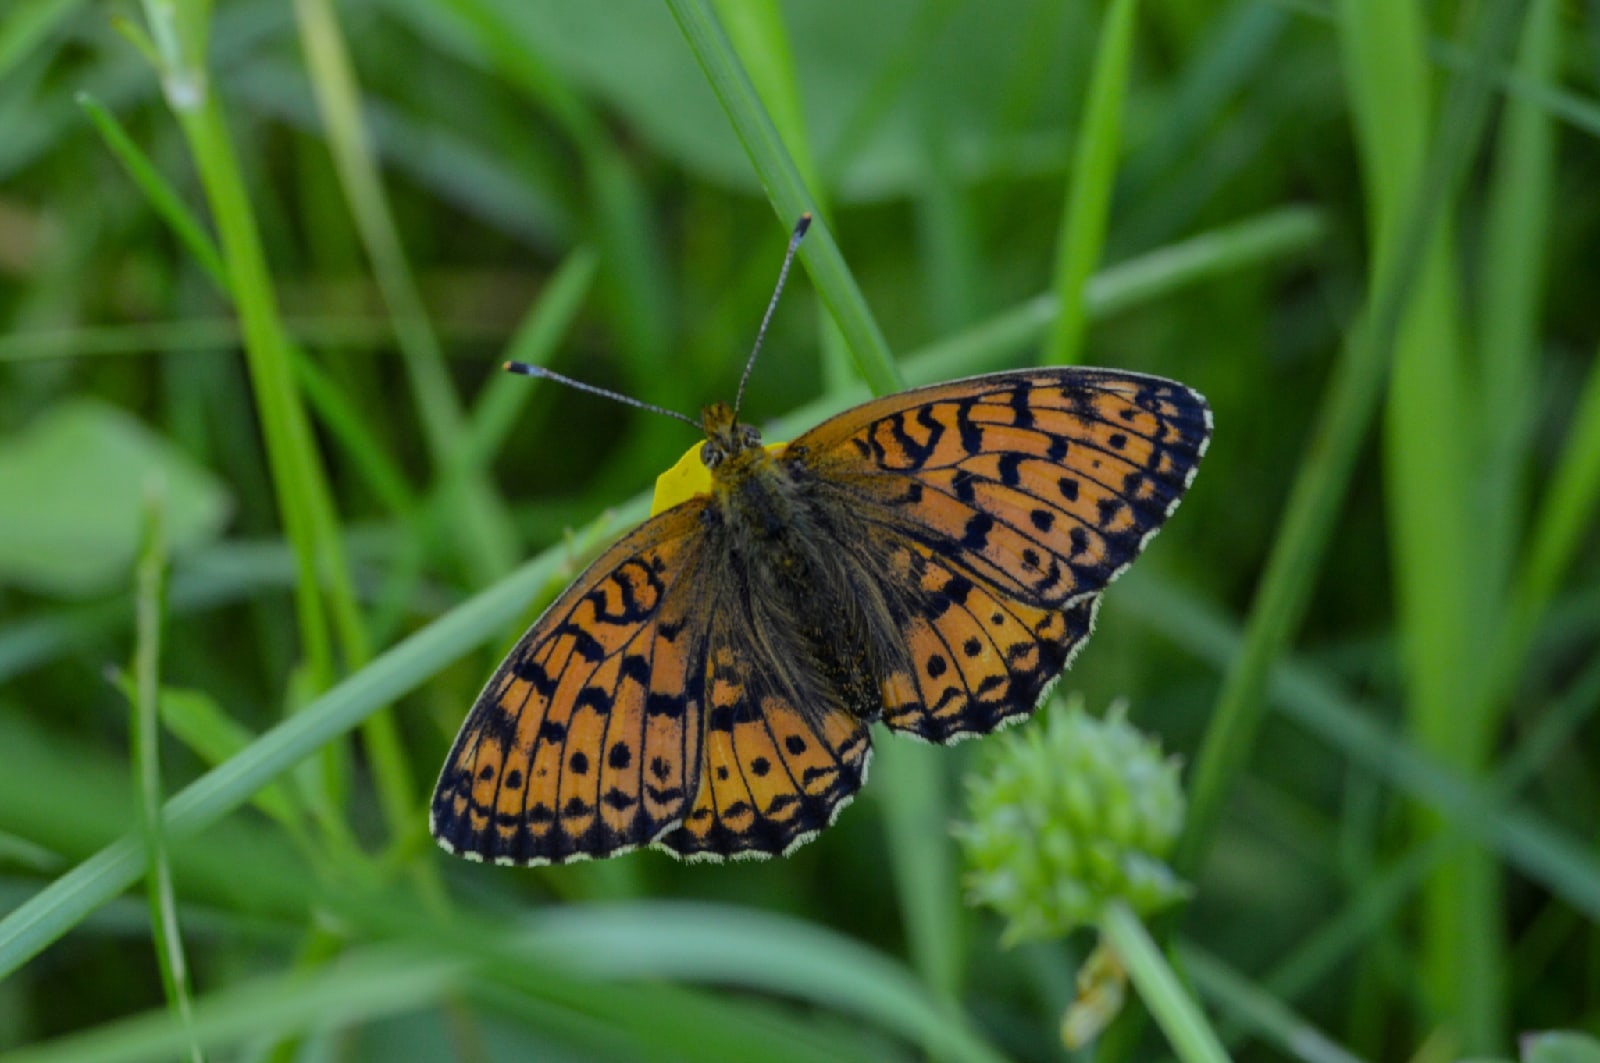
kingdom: Animalia
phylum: Arthropoda
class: Insecta
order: Lepidoptera
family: Nymphalidae
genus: Brenthis
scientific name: Brenthis ino
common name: Lesser marbled fritillary
